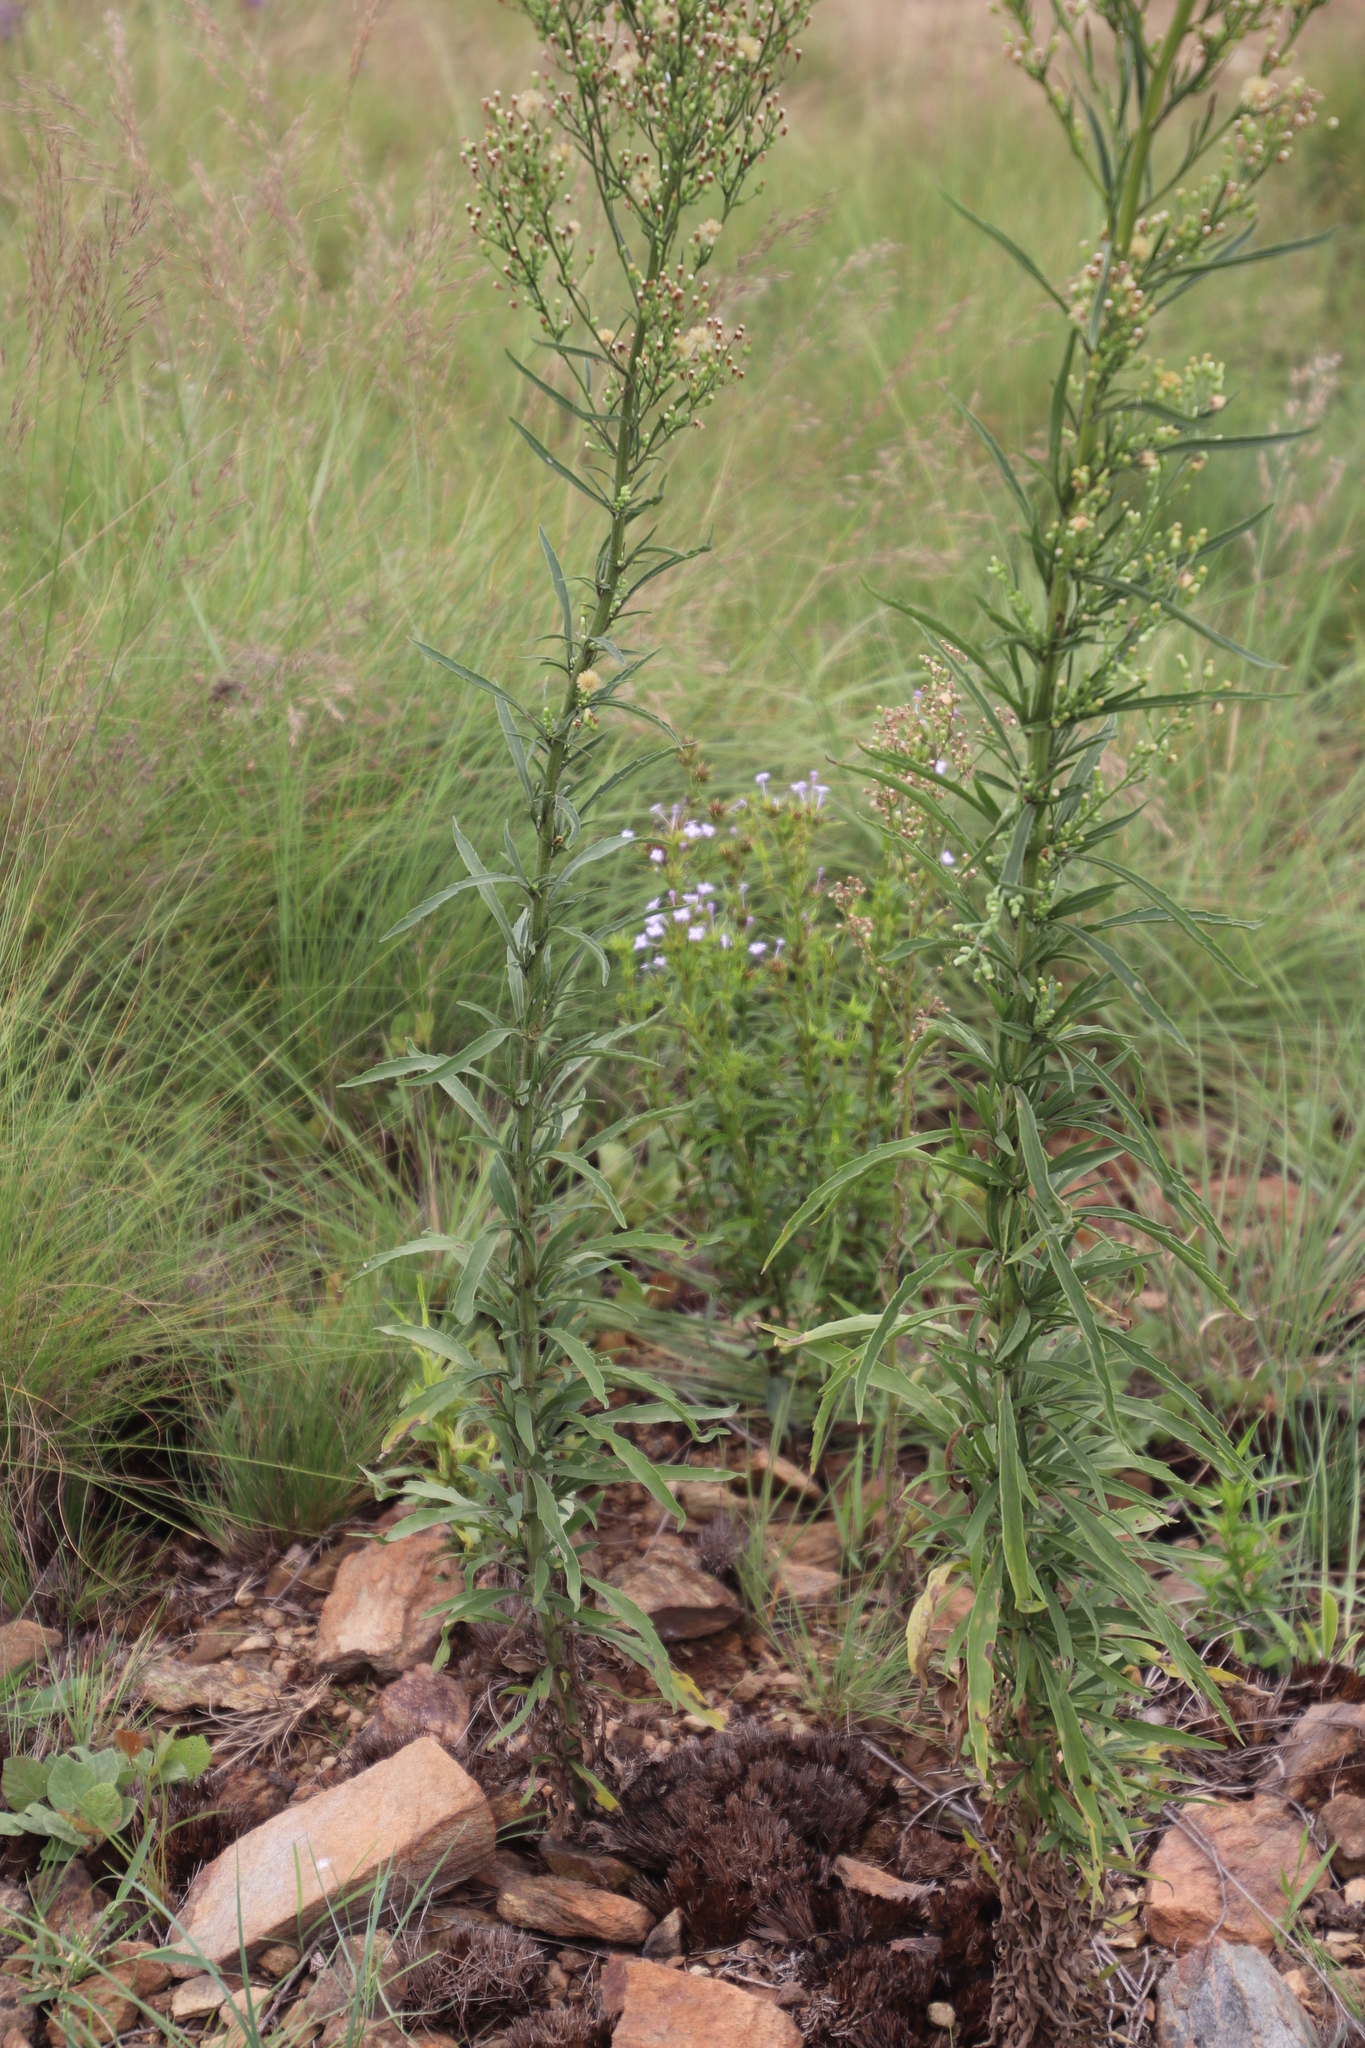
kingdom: Plantae
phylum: Tracheophyta
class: Magnoliopsida
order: Gentianales
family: Rubiaceae
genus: Conostomium
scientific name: Conostomium natalense
